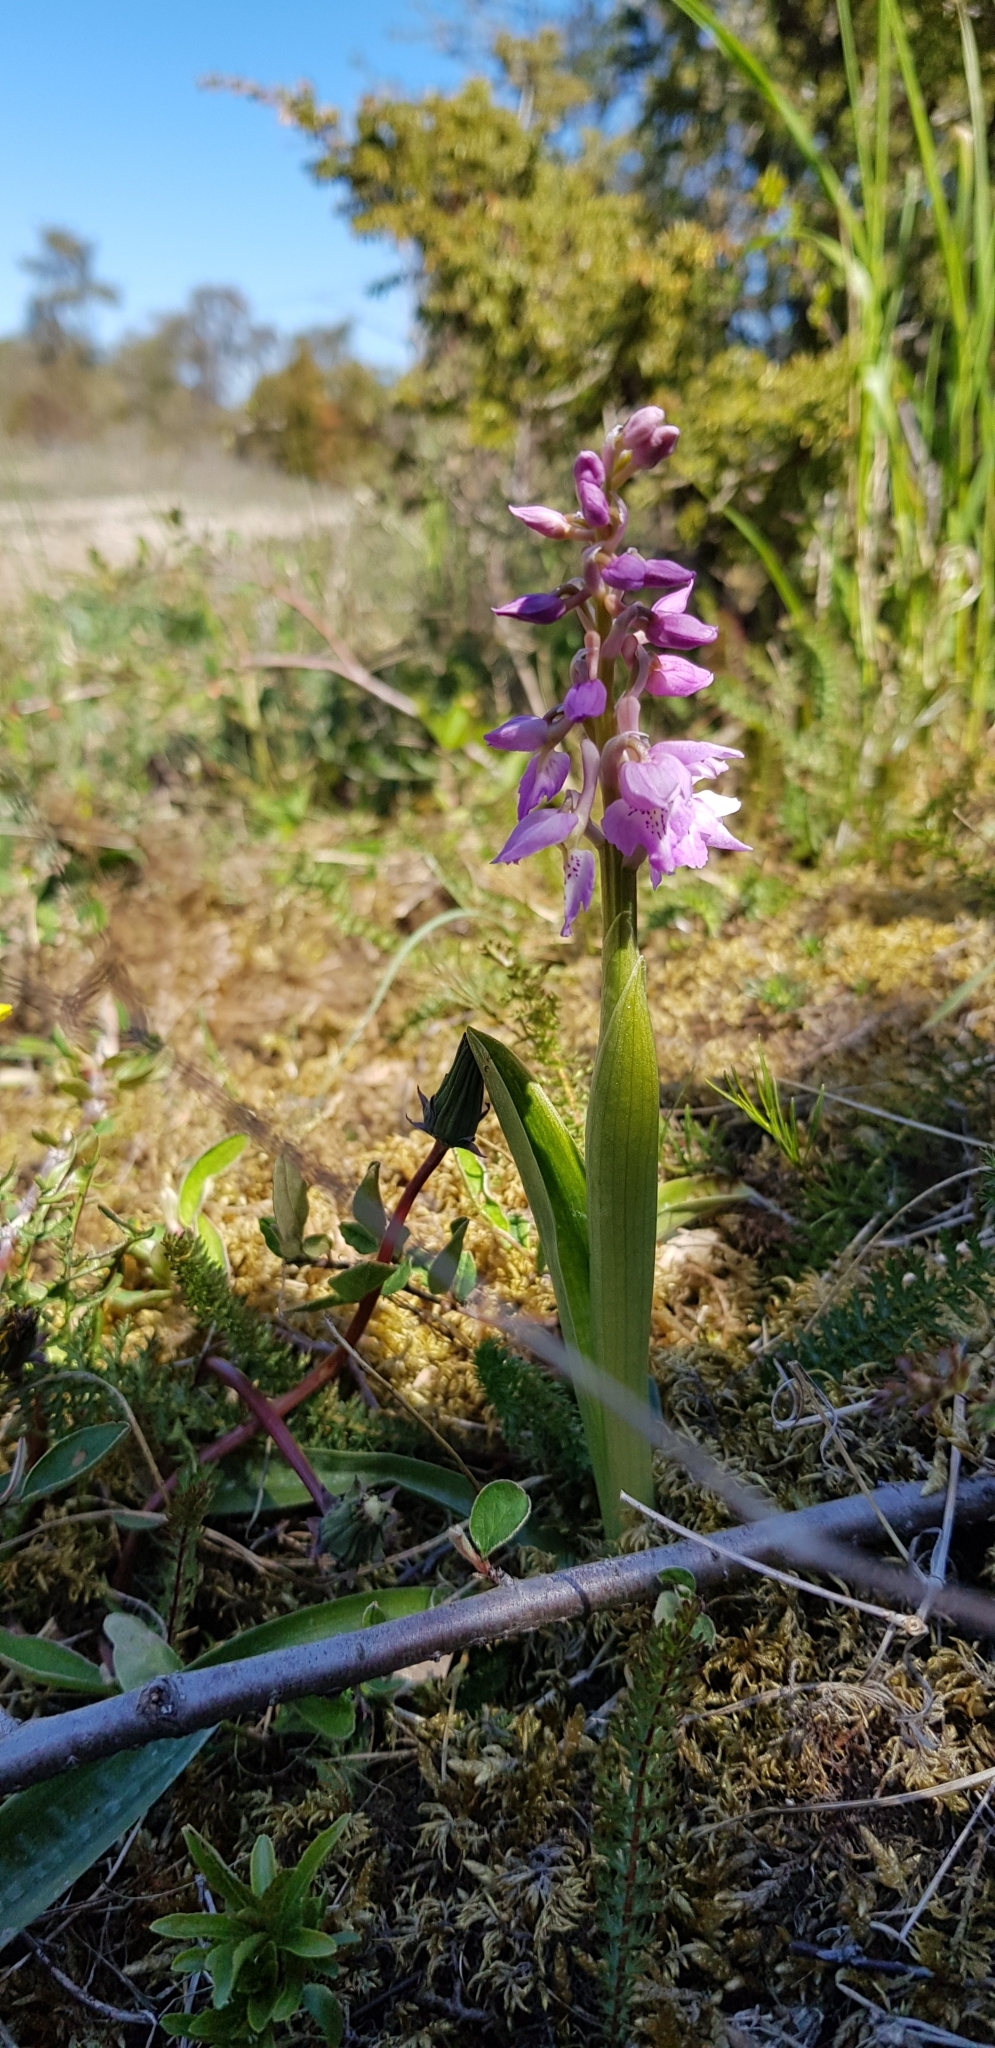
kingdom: Plantae
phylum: Tracheophyta
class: Liliopsida
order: Asparagales
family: Orchidaceae
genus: Orchis
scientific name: Orchis mascula
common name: Early-purple orchid
